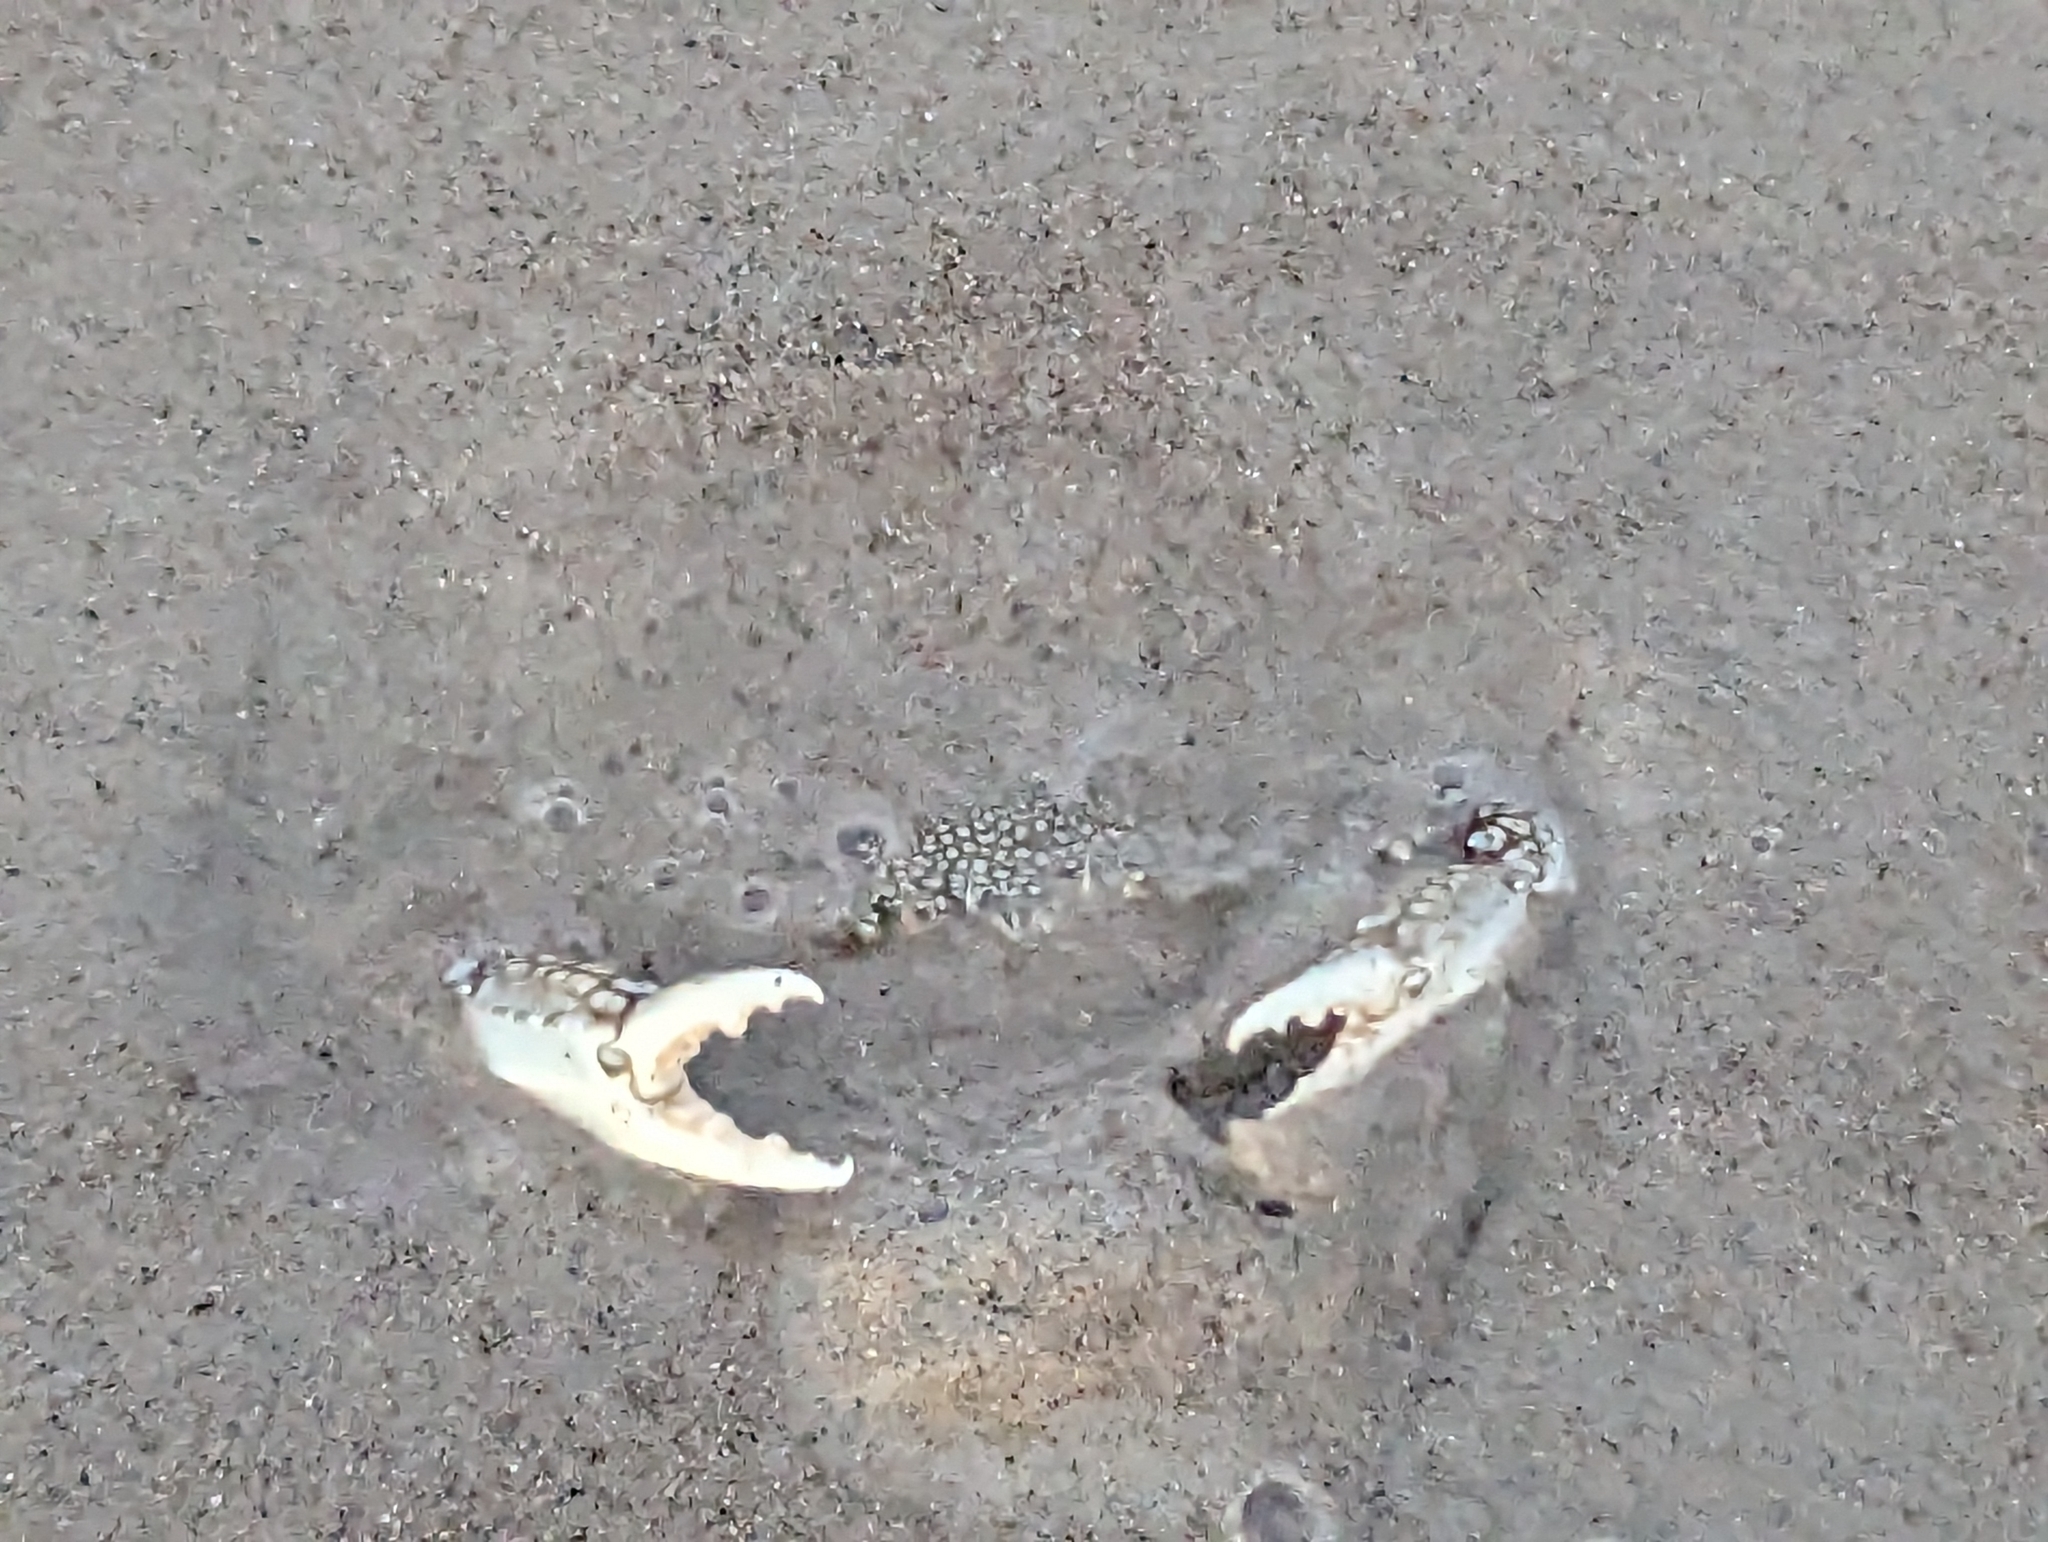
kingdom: Animalia
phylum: Arthropoda
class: Malacostraca
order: Decapoda
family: Portunidae
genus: Arenaeus
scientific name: Arenaeus cribrarius
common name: Speckled crab
